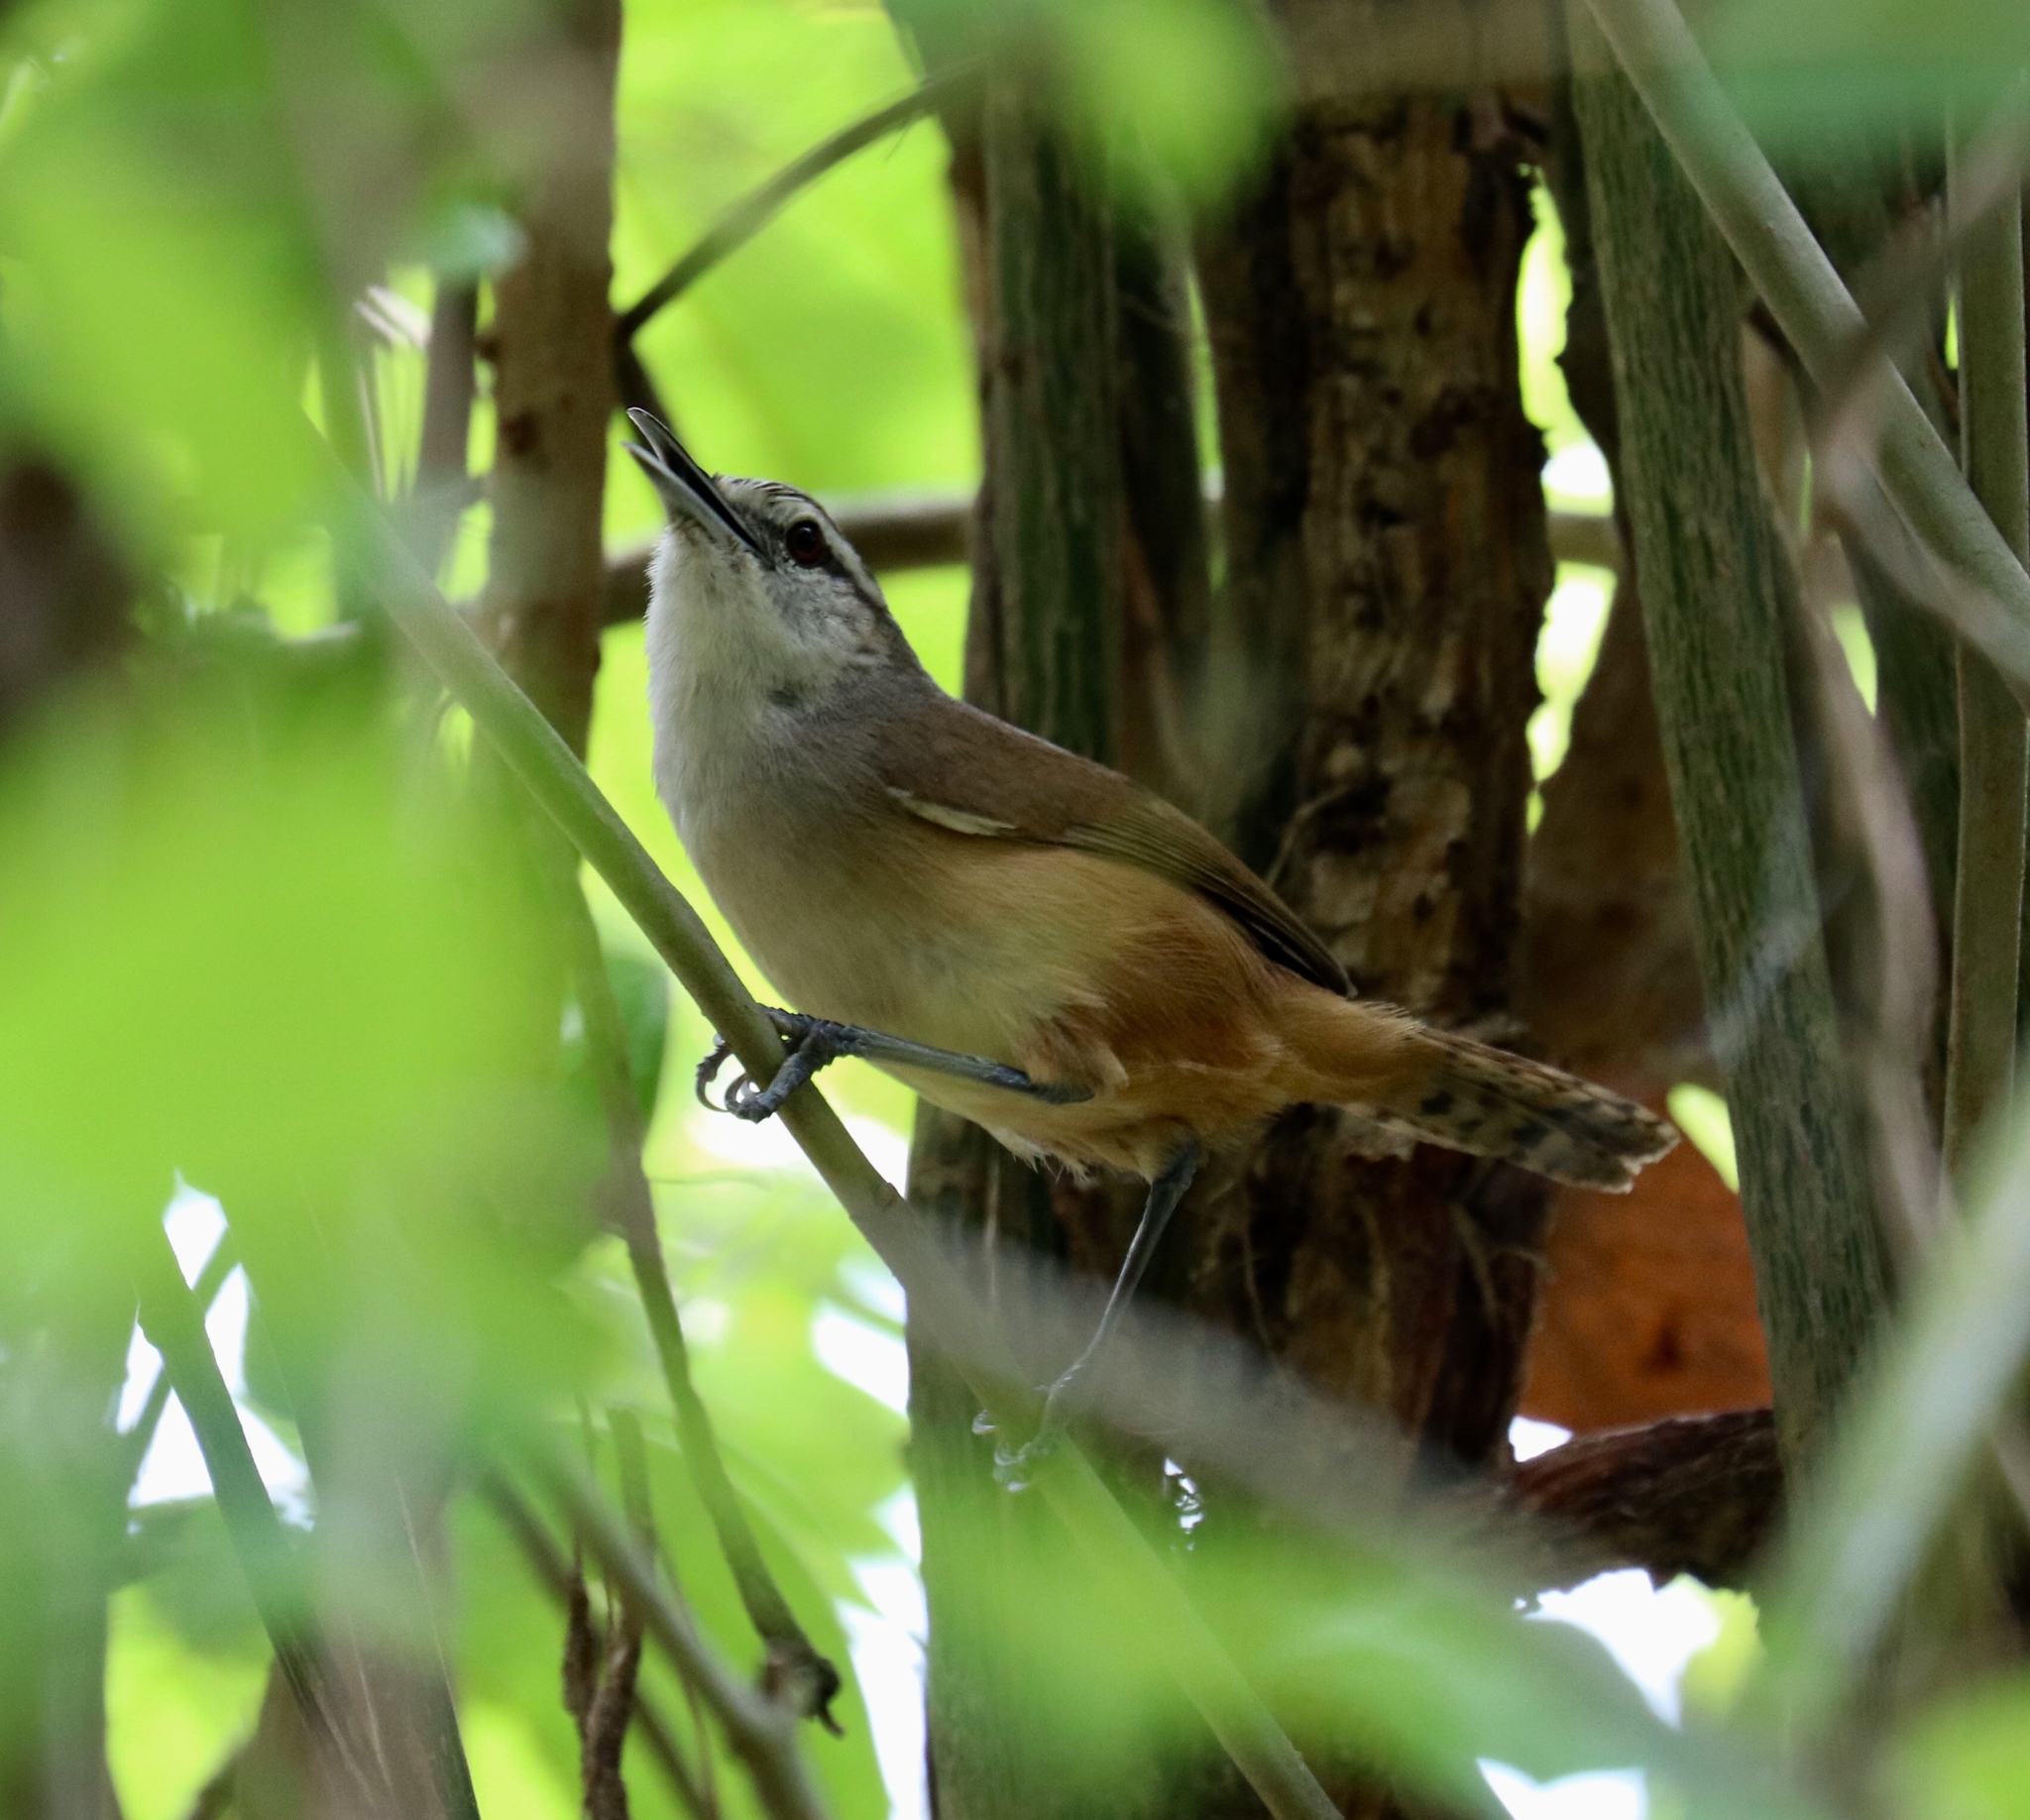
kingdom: Animalia
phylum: Chordata
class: Aves
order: Passeriformes
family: Troglodytidae
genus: Cantorchilus
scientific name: Cantorchilus modestus
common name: Cabanis's wren
